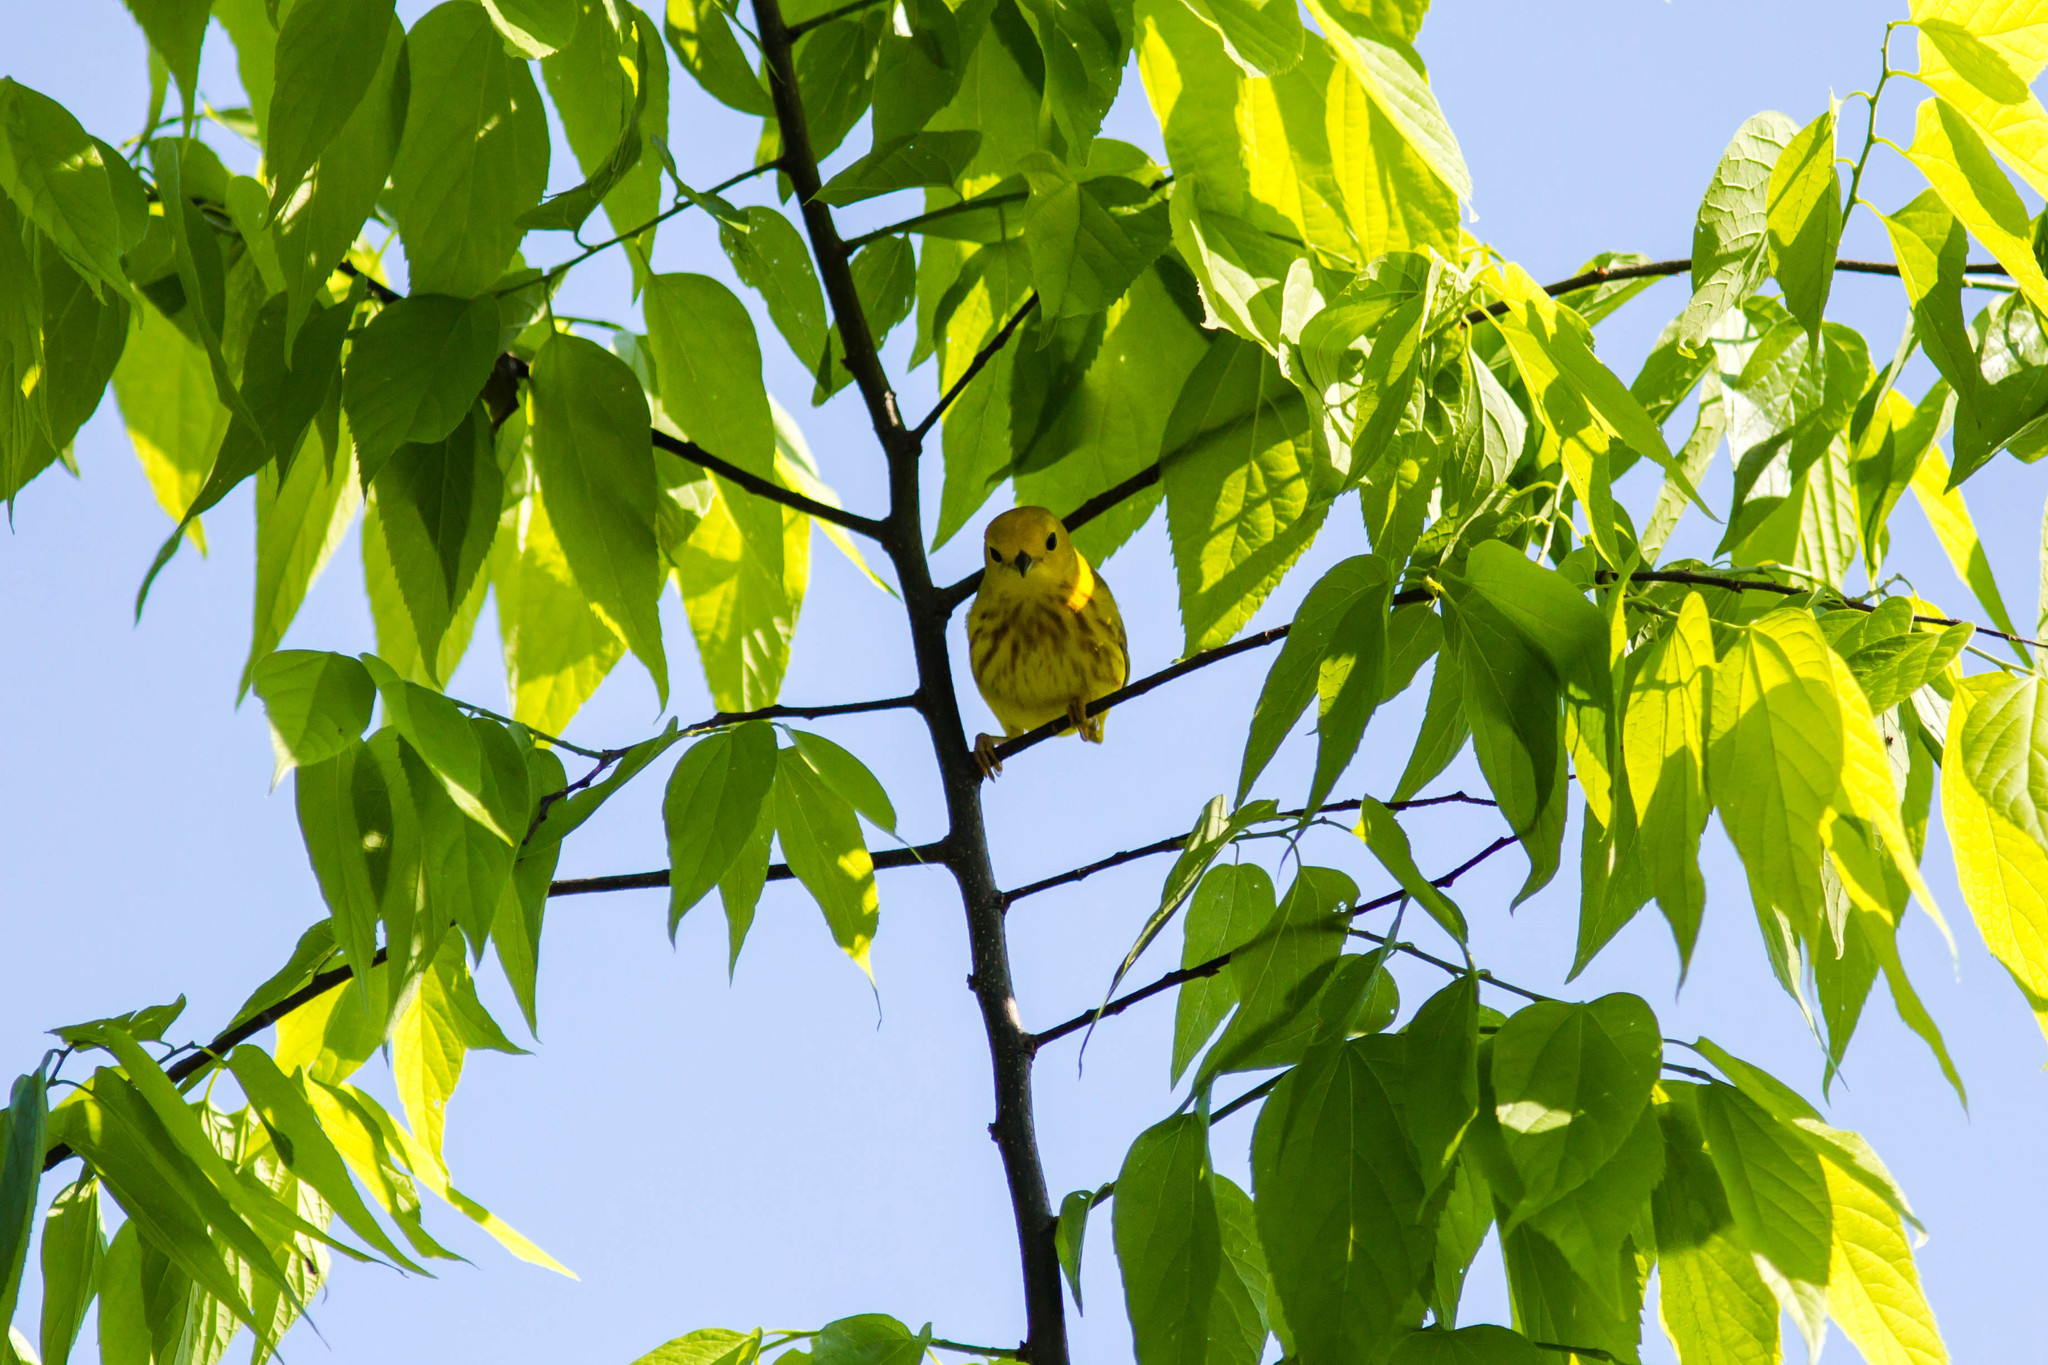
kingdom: Animalia
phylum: Chordata
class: Aves
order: Passeriformes
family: Parulidae
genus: Setophaga
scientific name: Setophaga petechia
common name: Yellow warbler
